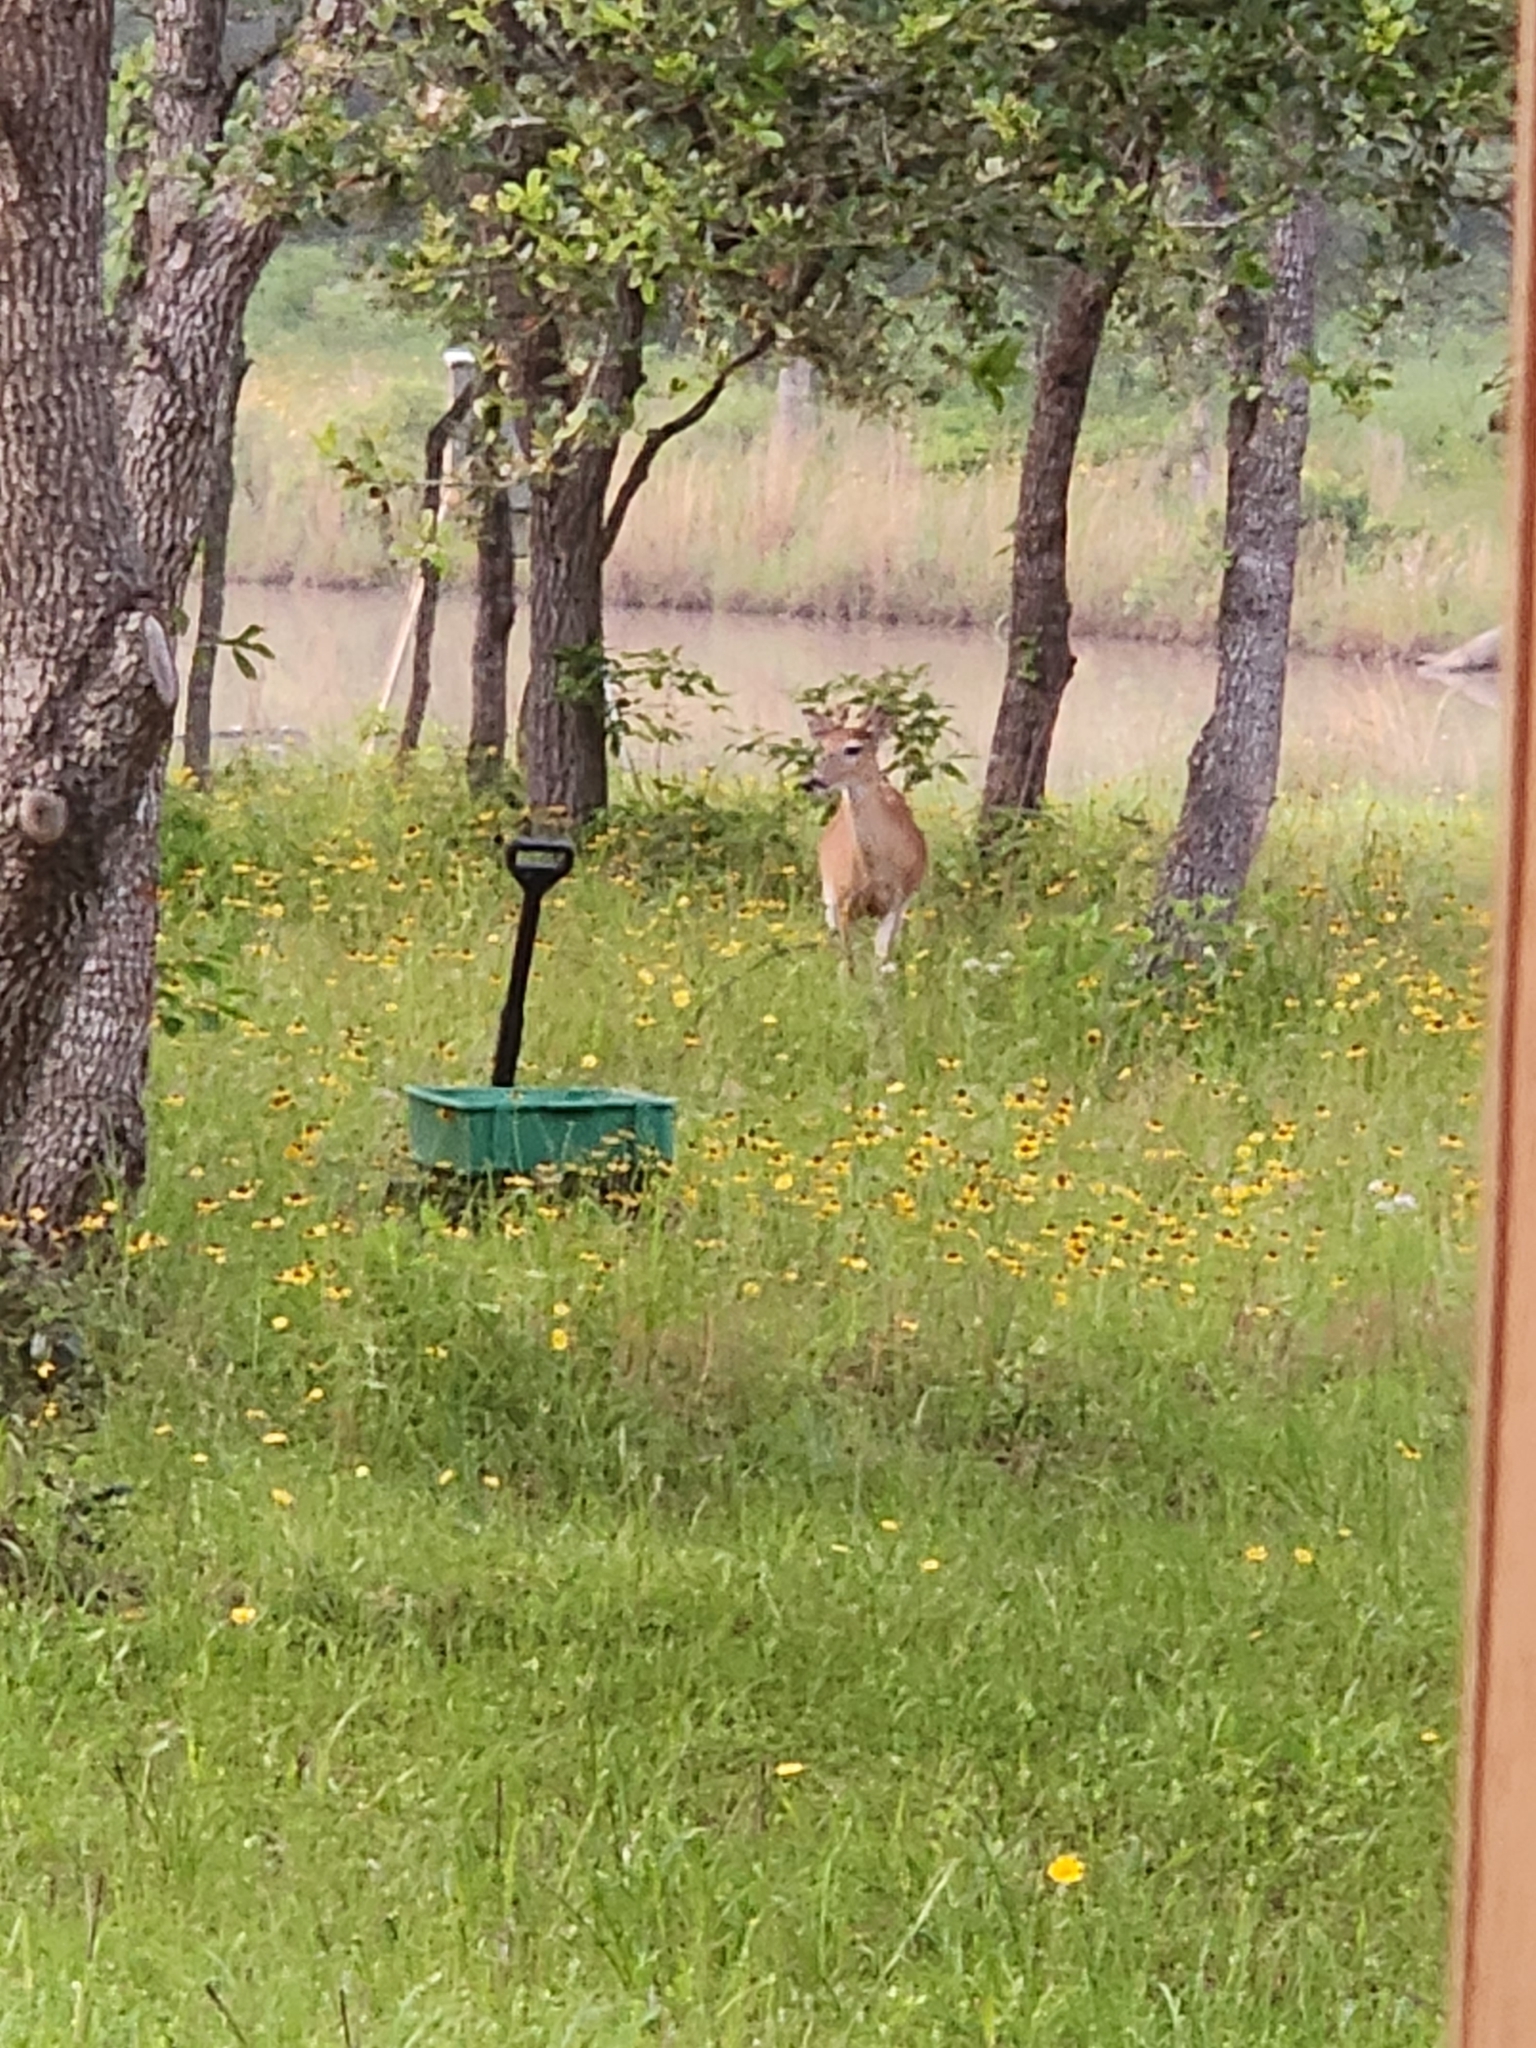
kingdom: Animalia
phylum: Chordata
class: Mammalia
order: Artiodactyla
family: Cervidae
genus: Odocoileus
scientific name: Odocoileus virginianus
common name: White-tailed deer
